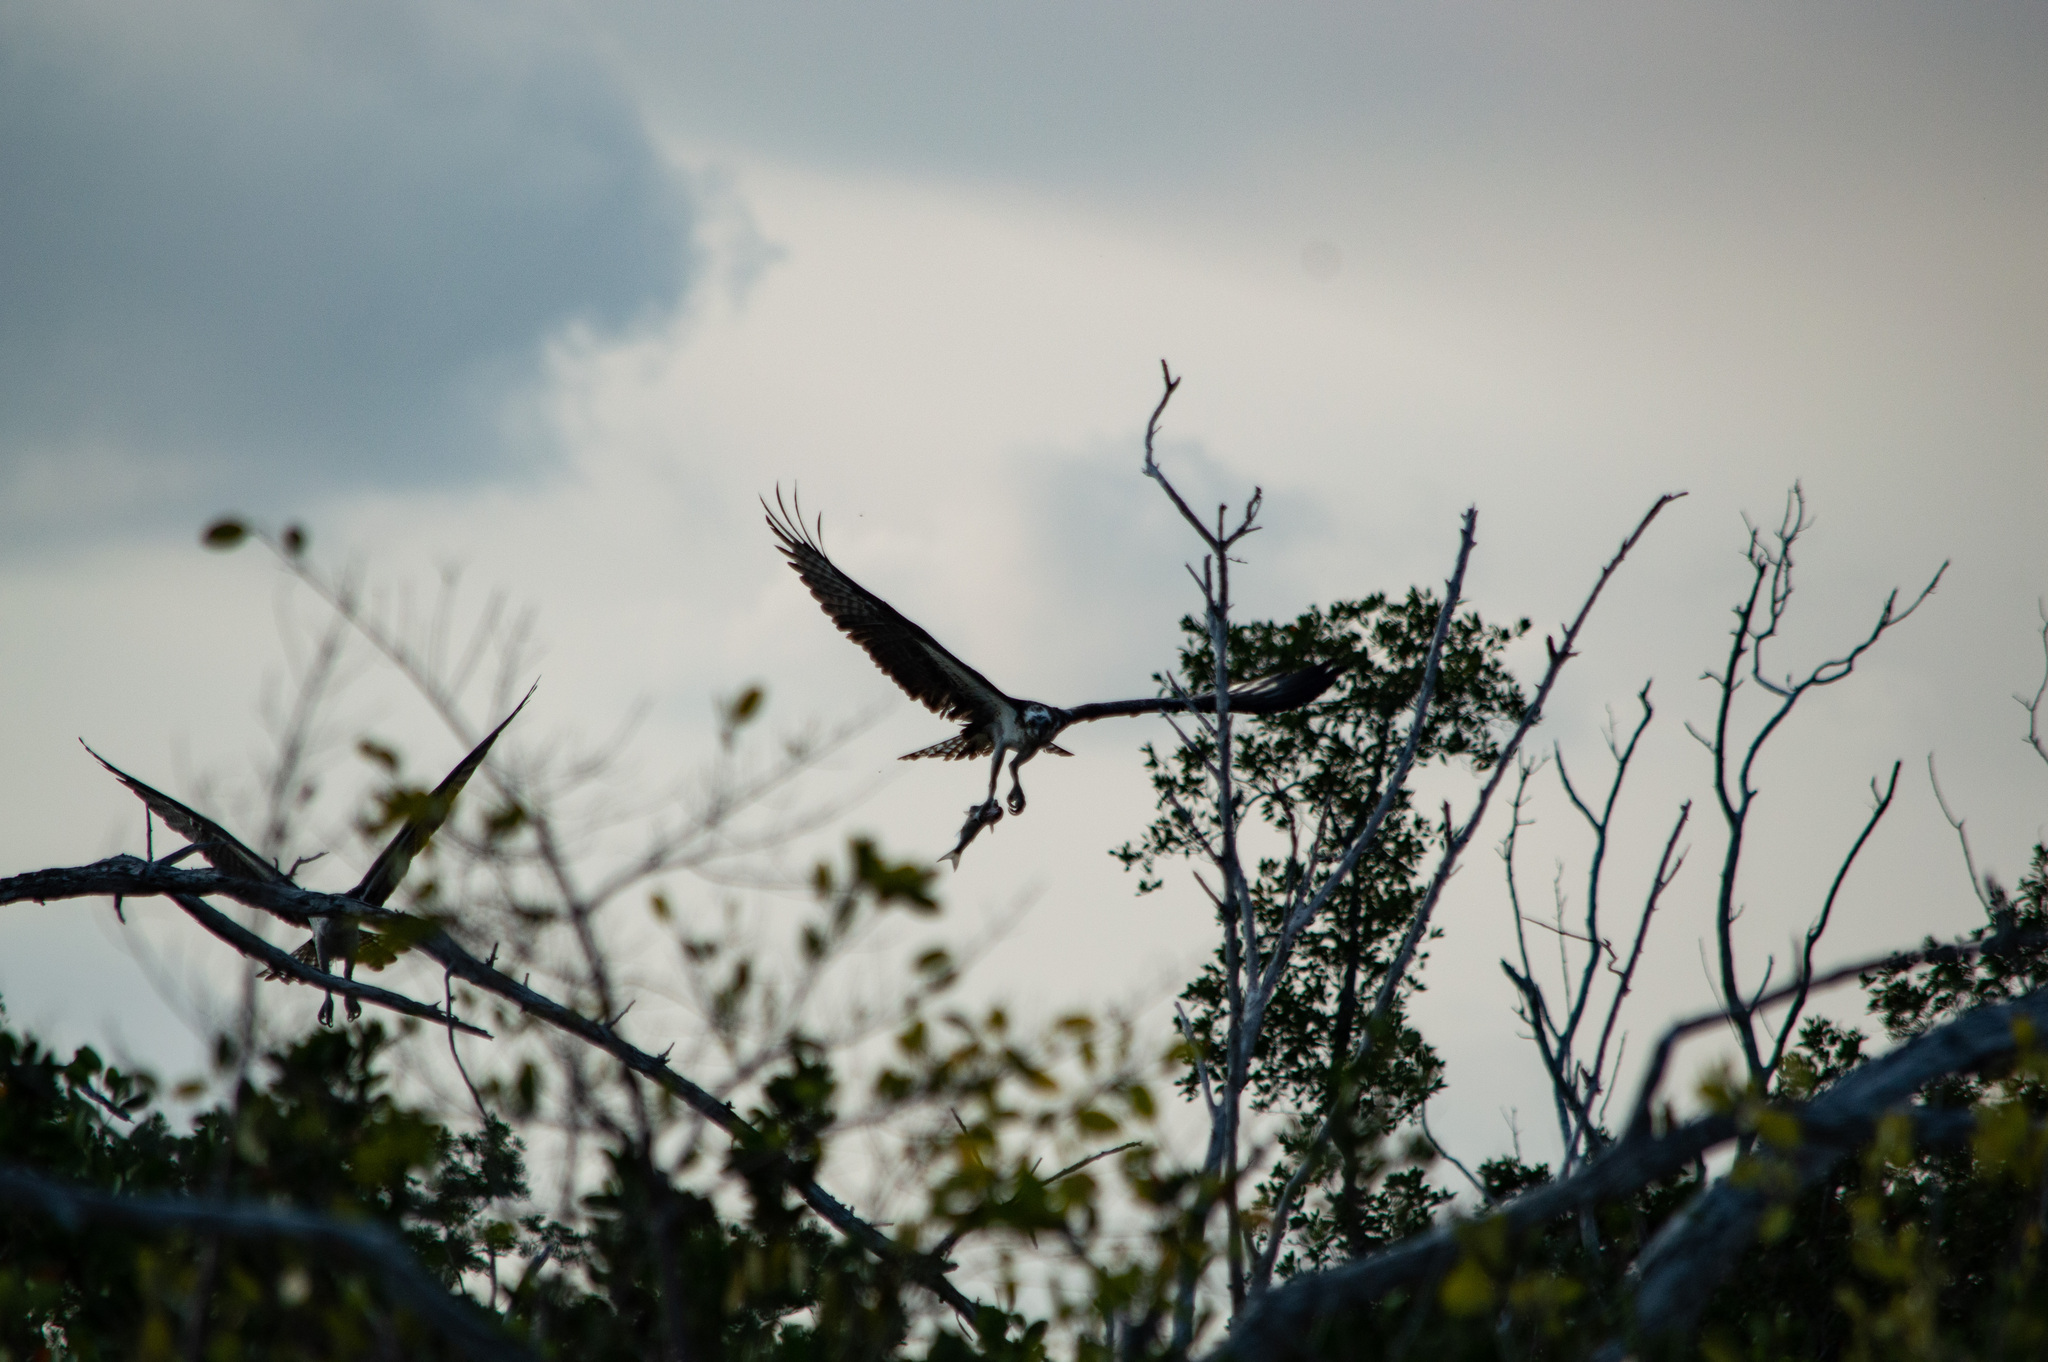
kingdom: Animalia
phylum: Chordata
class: Aves
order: Accipitriformes
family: Pandionidae
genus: Pandion
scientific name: Pandion haliaetus
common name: Osprey
